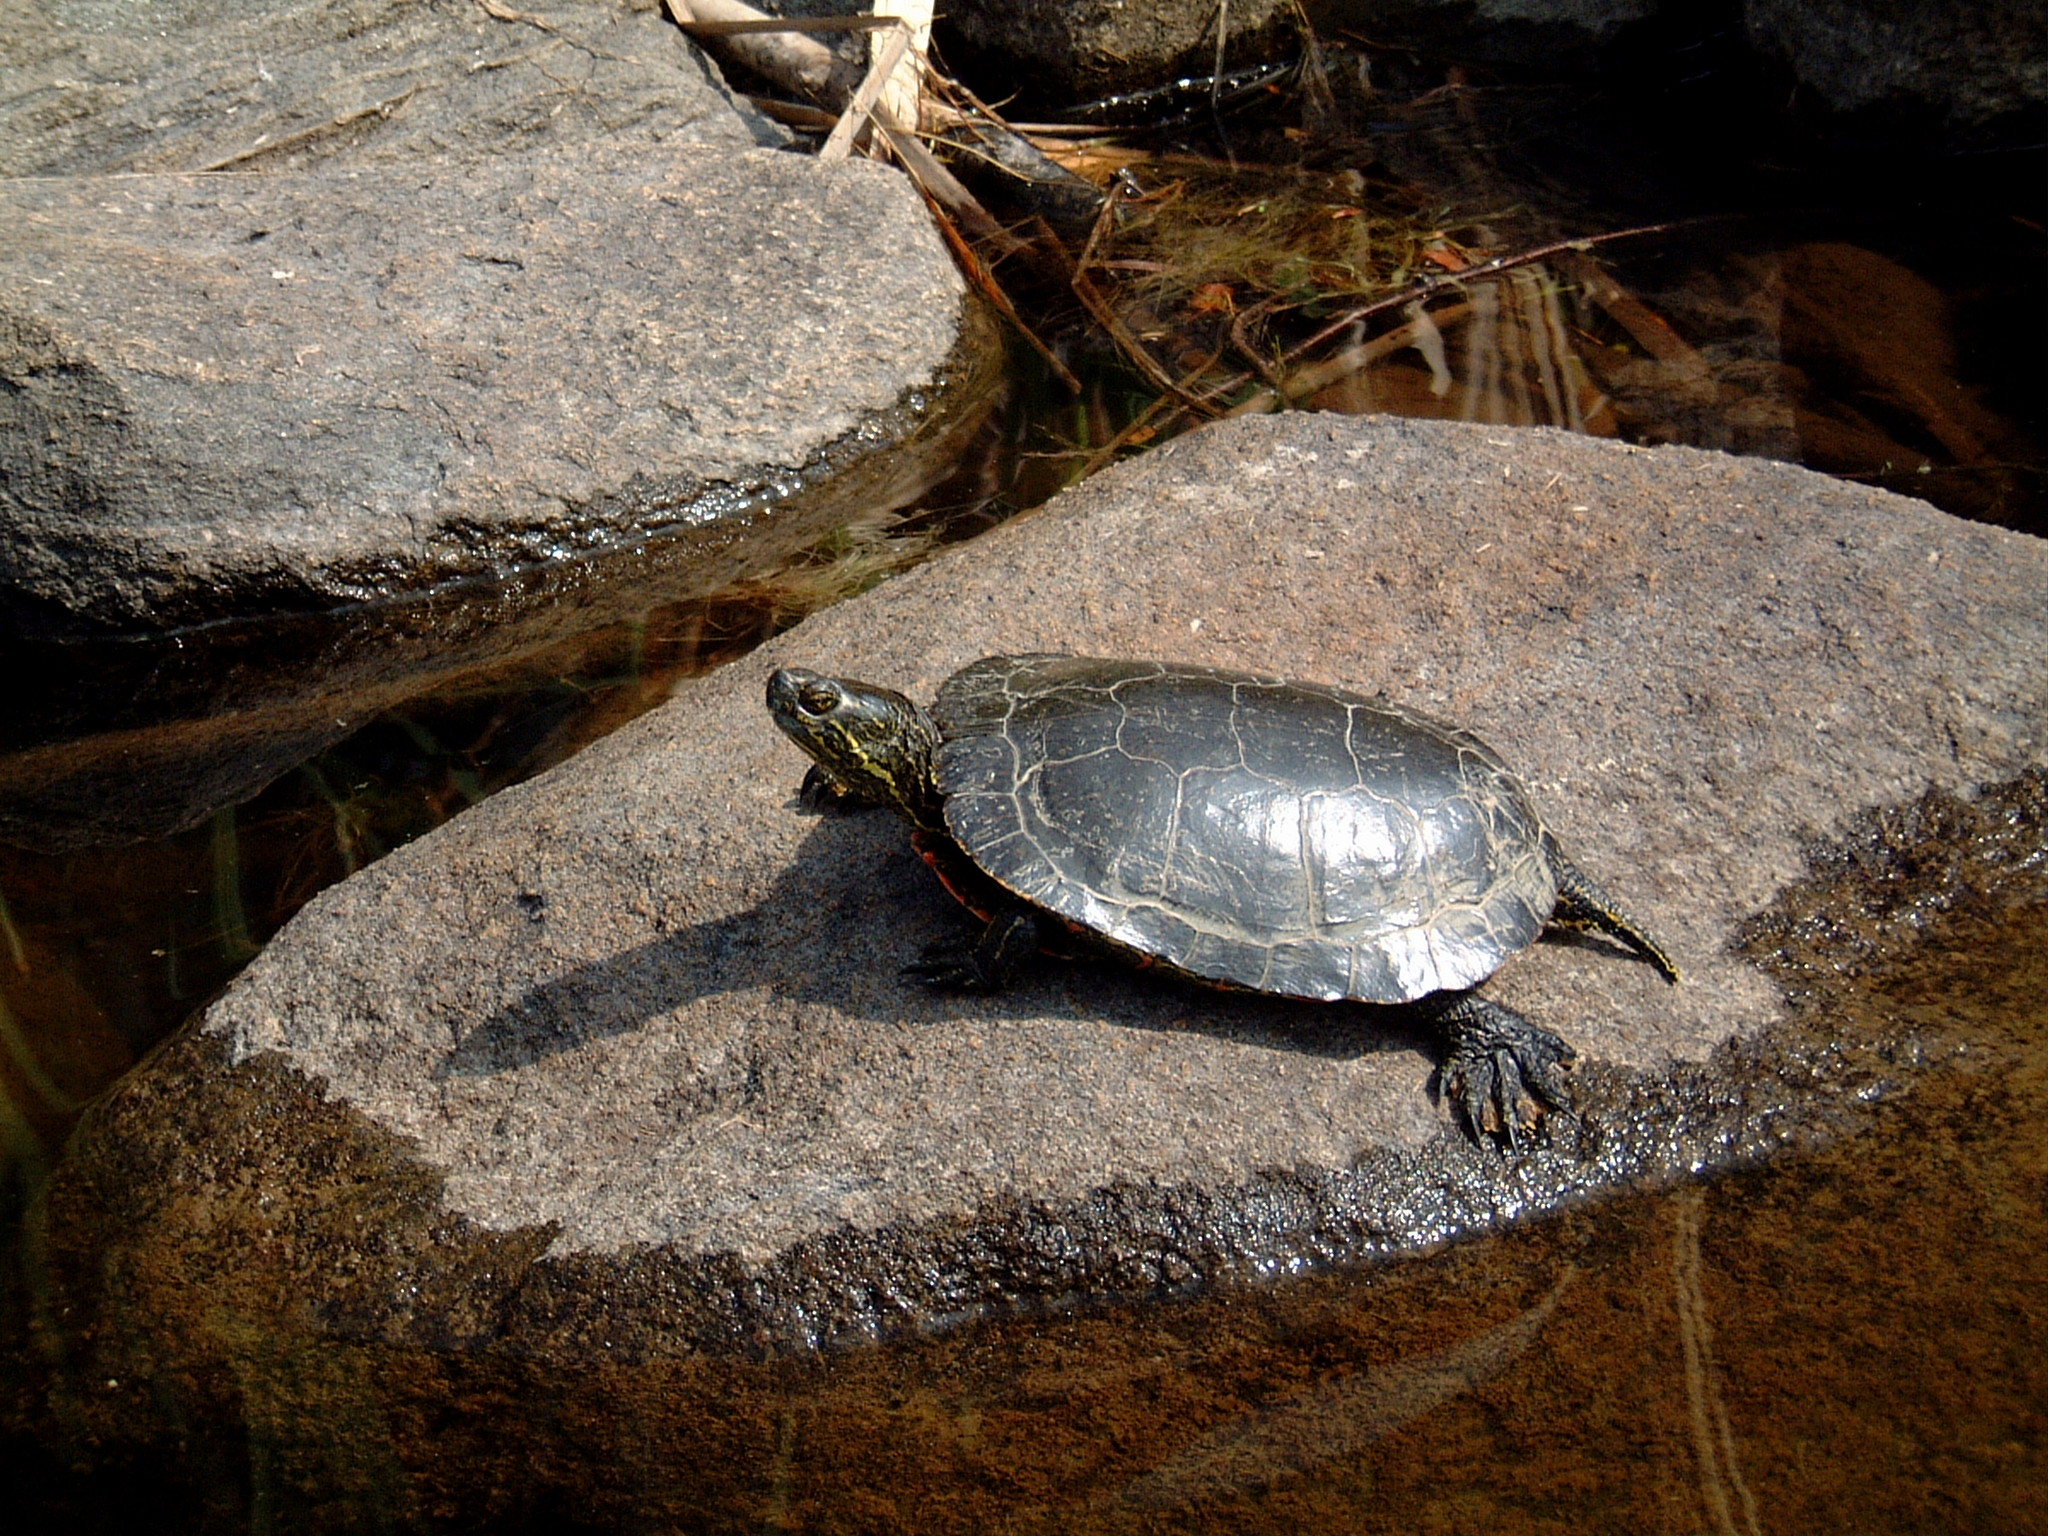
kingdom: Animalia
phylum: Chordata
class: Testudines
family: Emydidae
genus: Chrysemys
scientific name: Chrysemys picta
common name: Painted turtle
